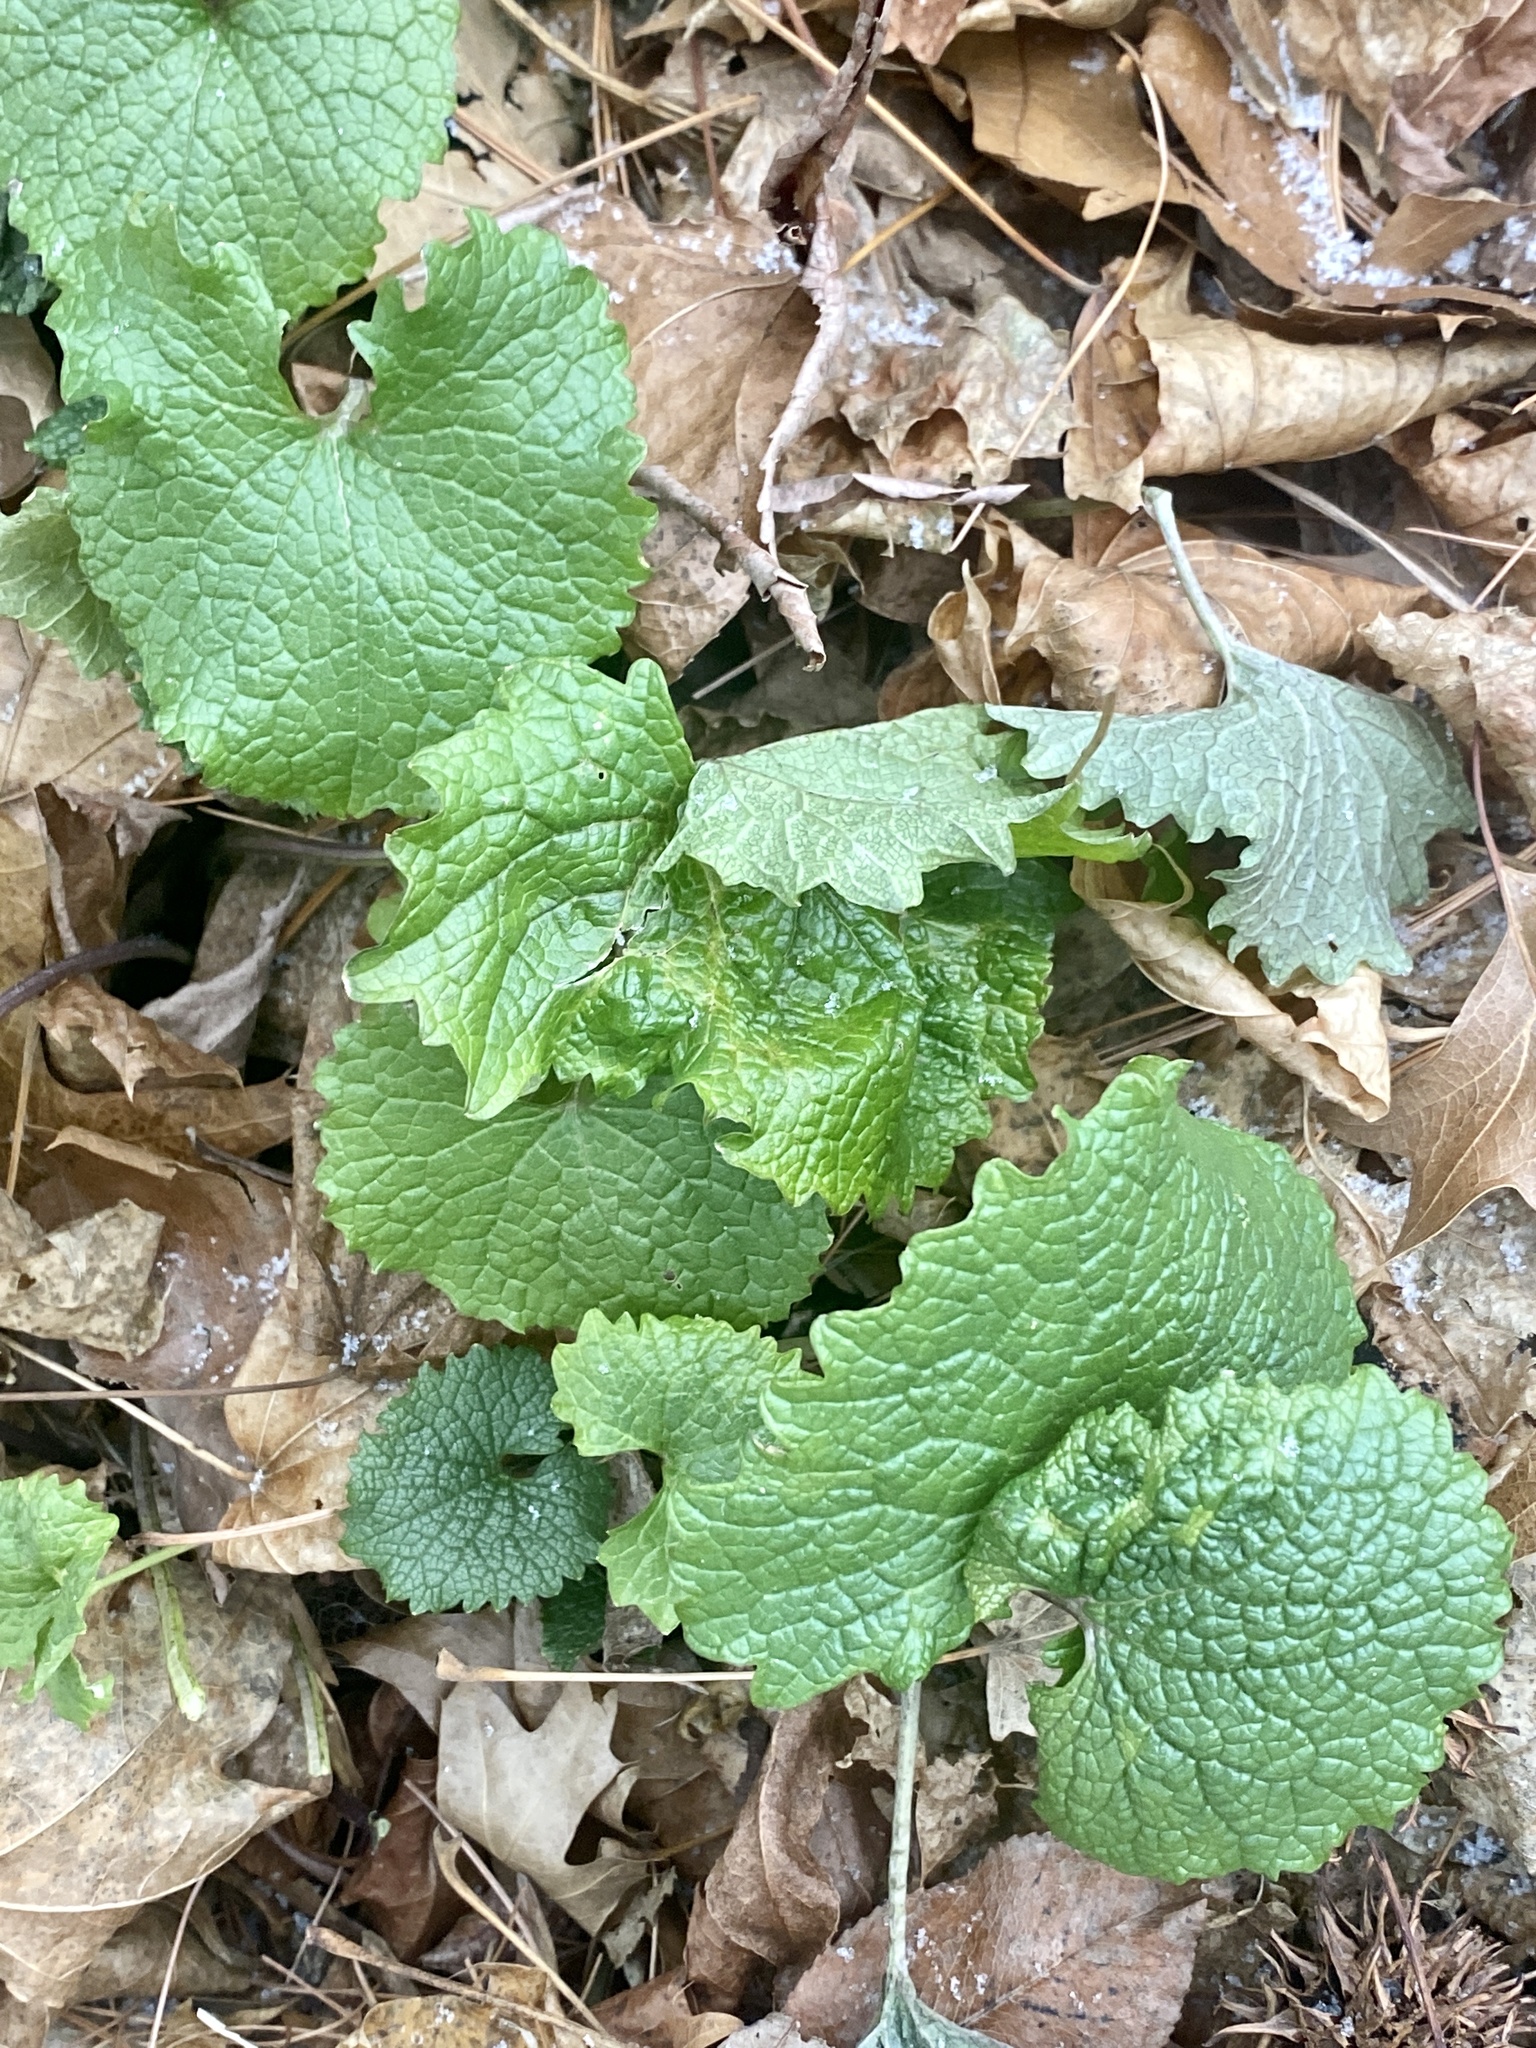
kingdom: Plantae
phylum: Tracheophyta
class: Magnoliopsida
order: Brassicales
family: Brassicaceae
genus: Alliaria
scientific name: Alliaria petiolata
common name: Garlic mustard
